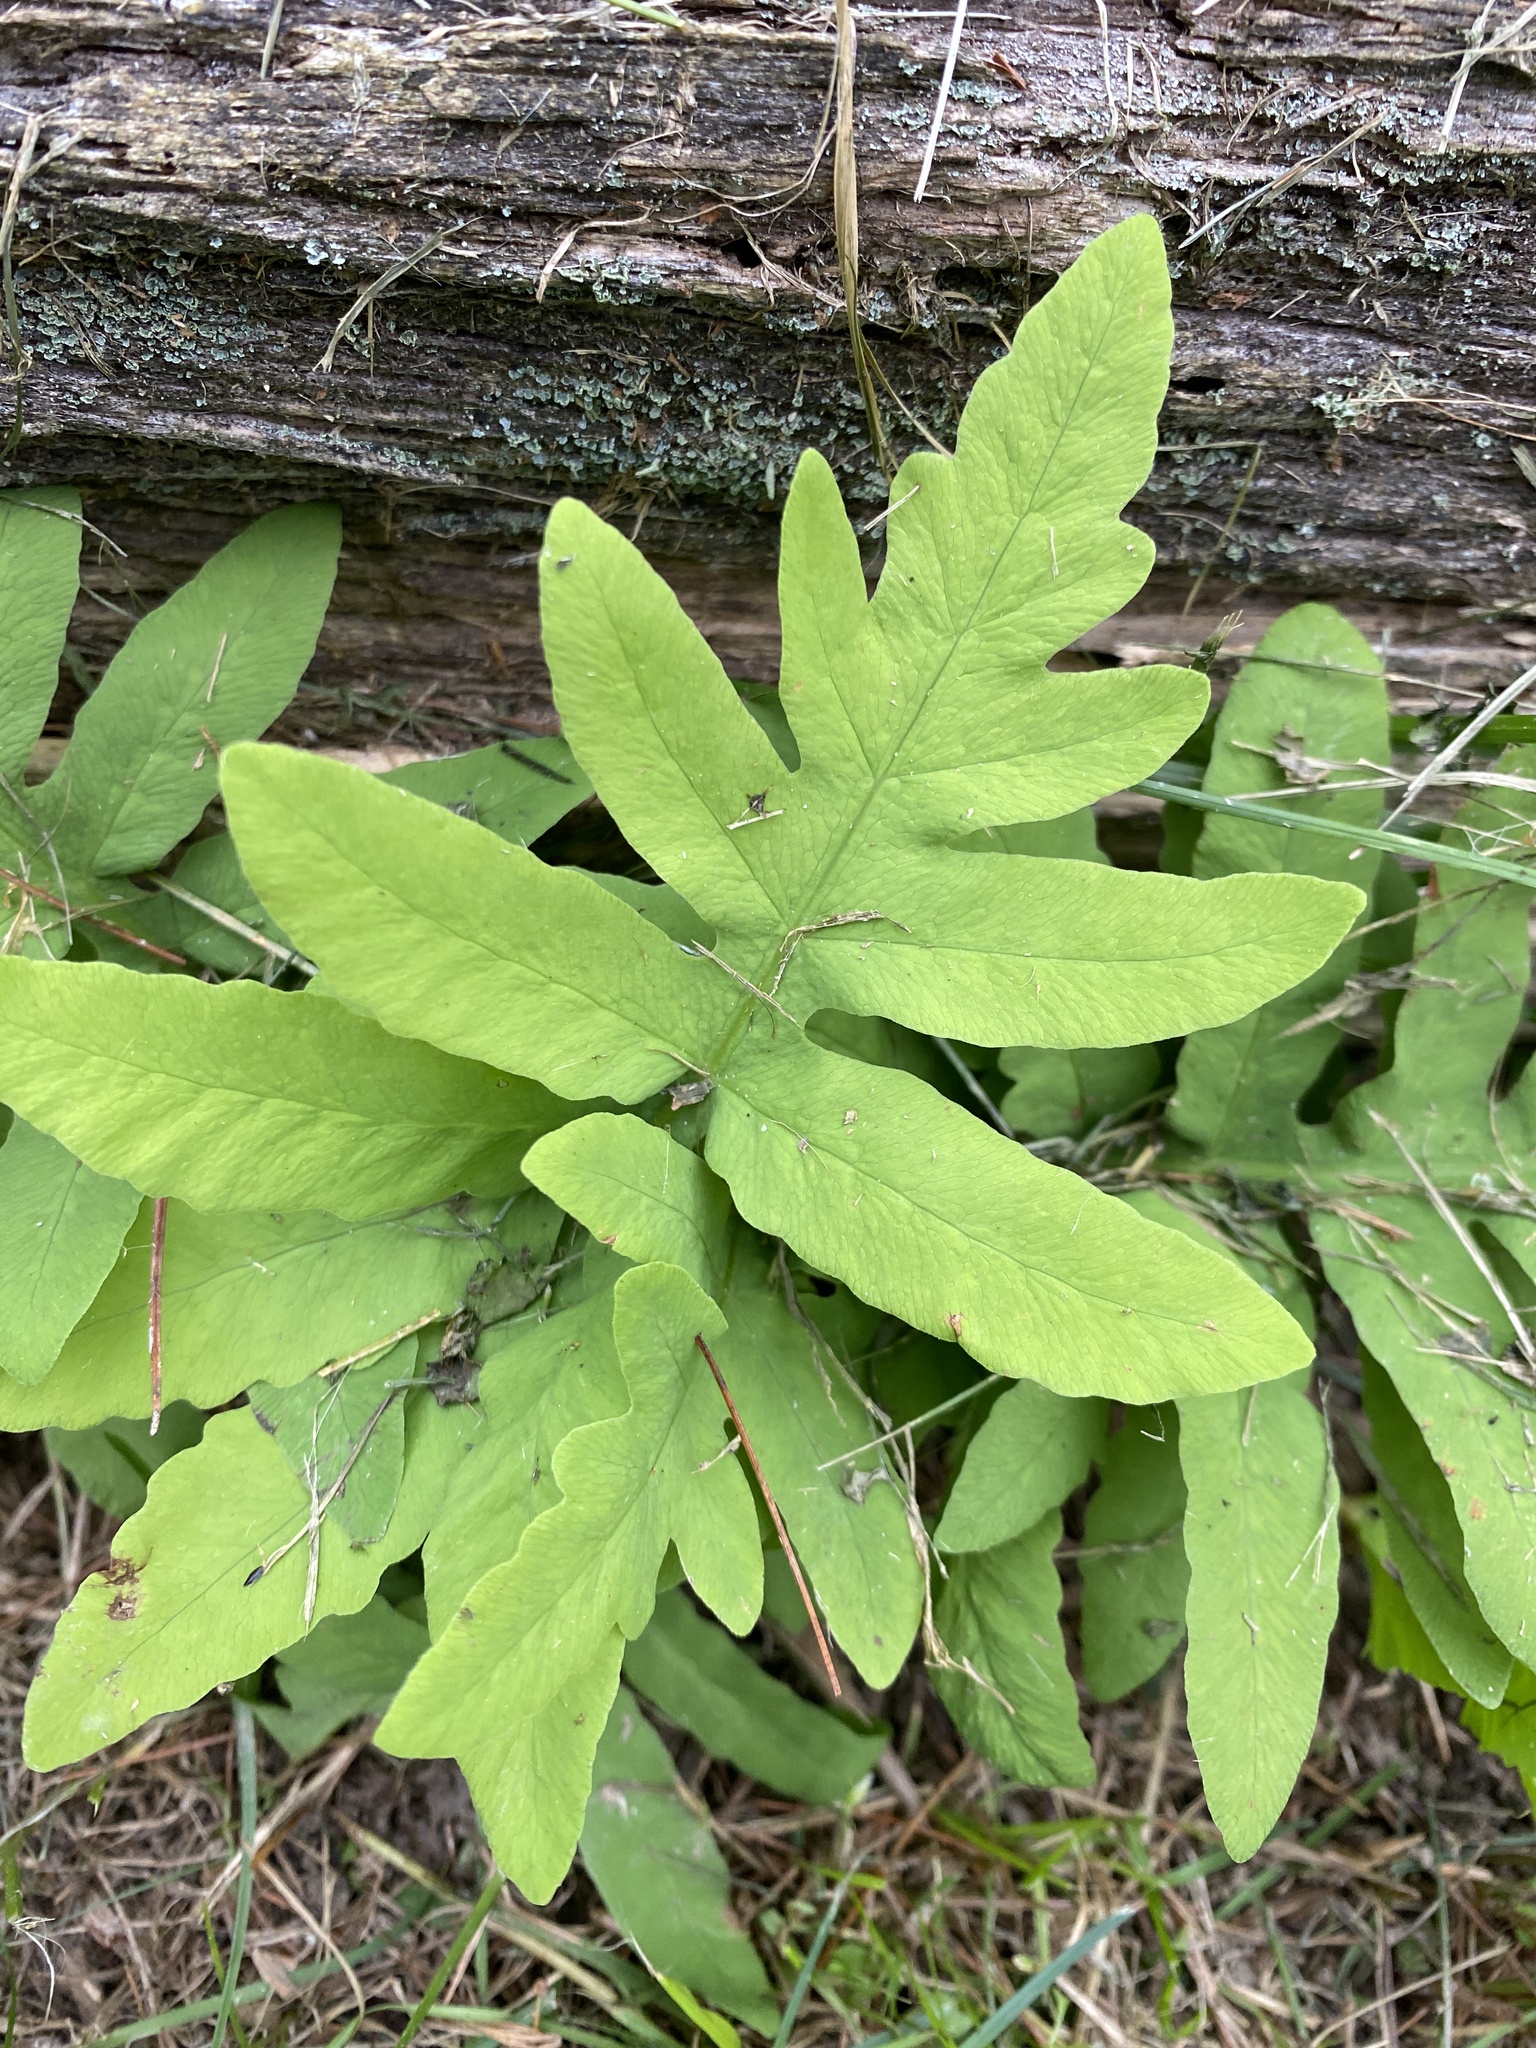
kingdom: Plantae
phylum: Tracheophyta
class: Polypodiopsida
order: Polypodiales
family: Onocleaceae
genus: Onoclea
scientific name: Onoclea sensibilis
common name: Sensitive fern
